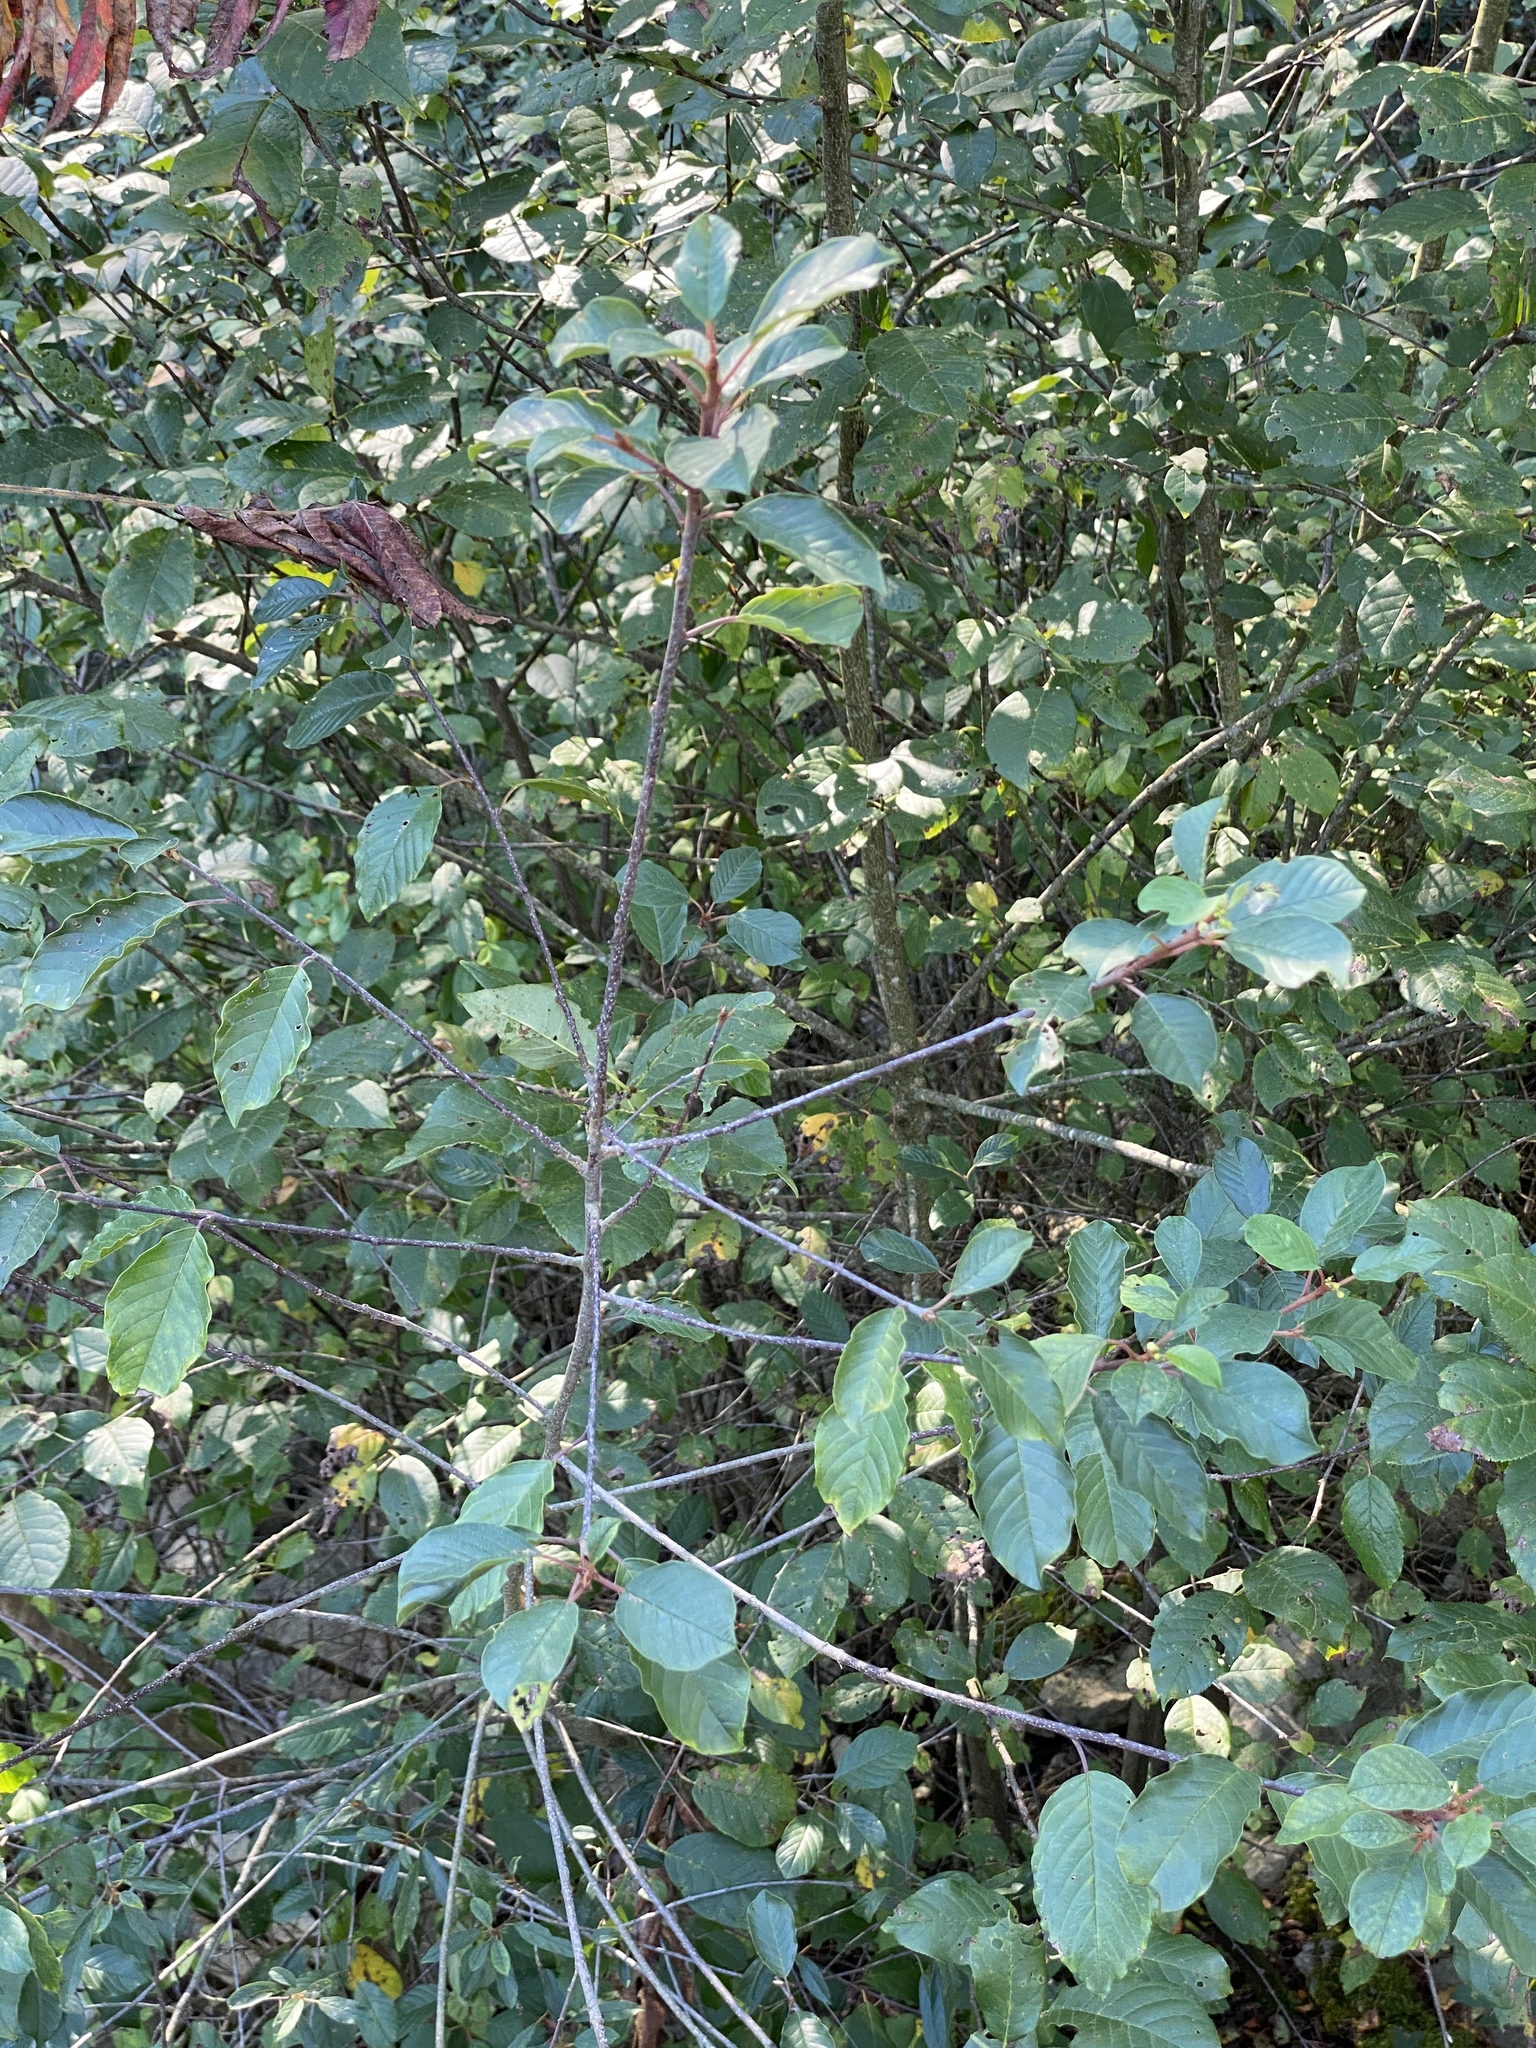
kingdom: Plantae
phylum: Tracheophyta
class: Magnoliopsida
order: Rosales
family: Rhamnaceae
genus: Frangula
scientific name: Frangula alnus
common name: Alder buckthorn
